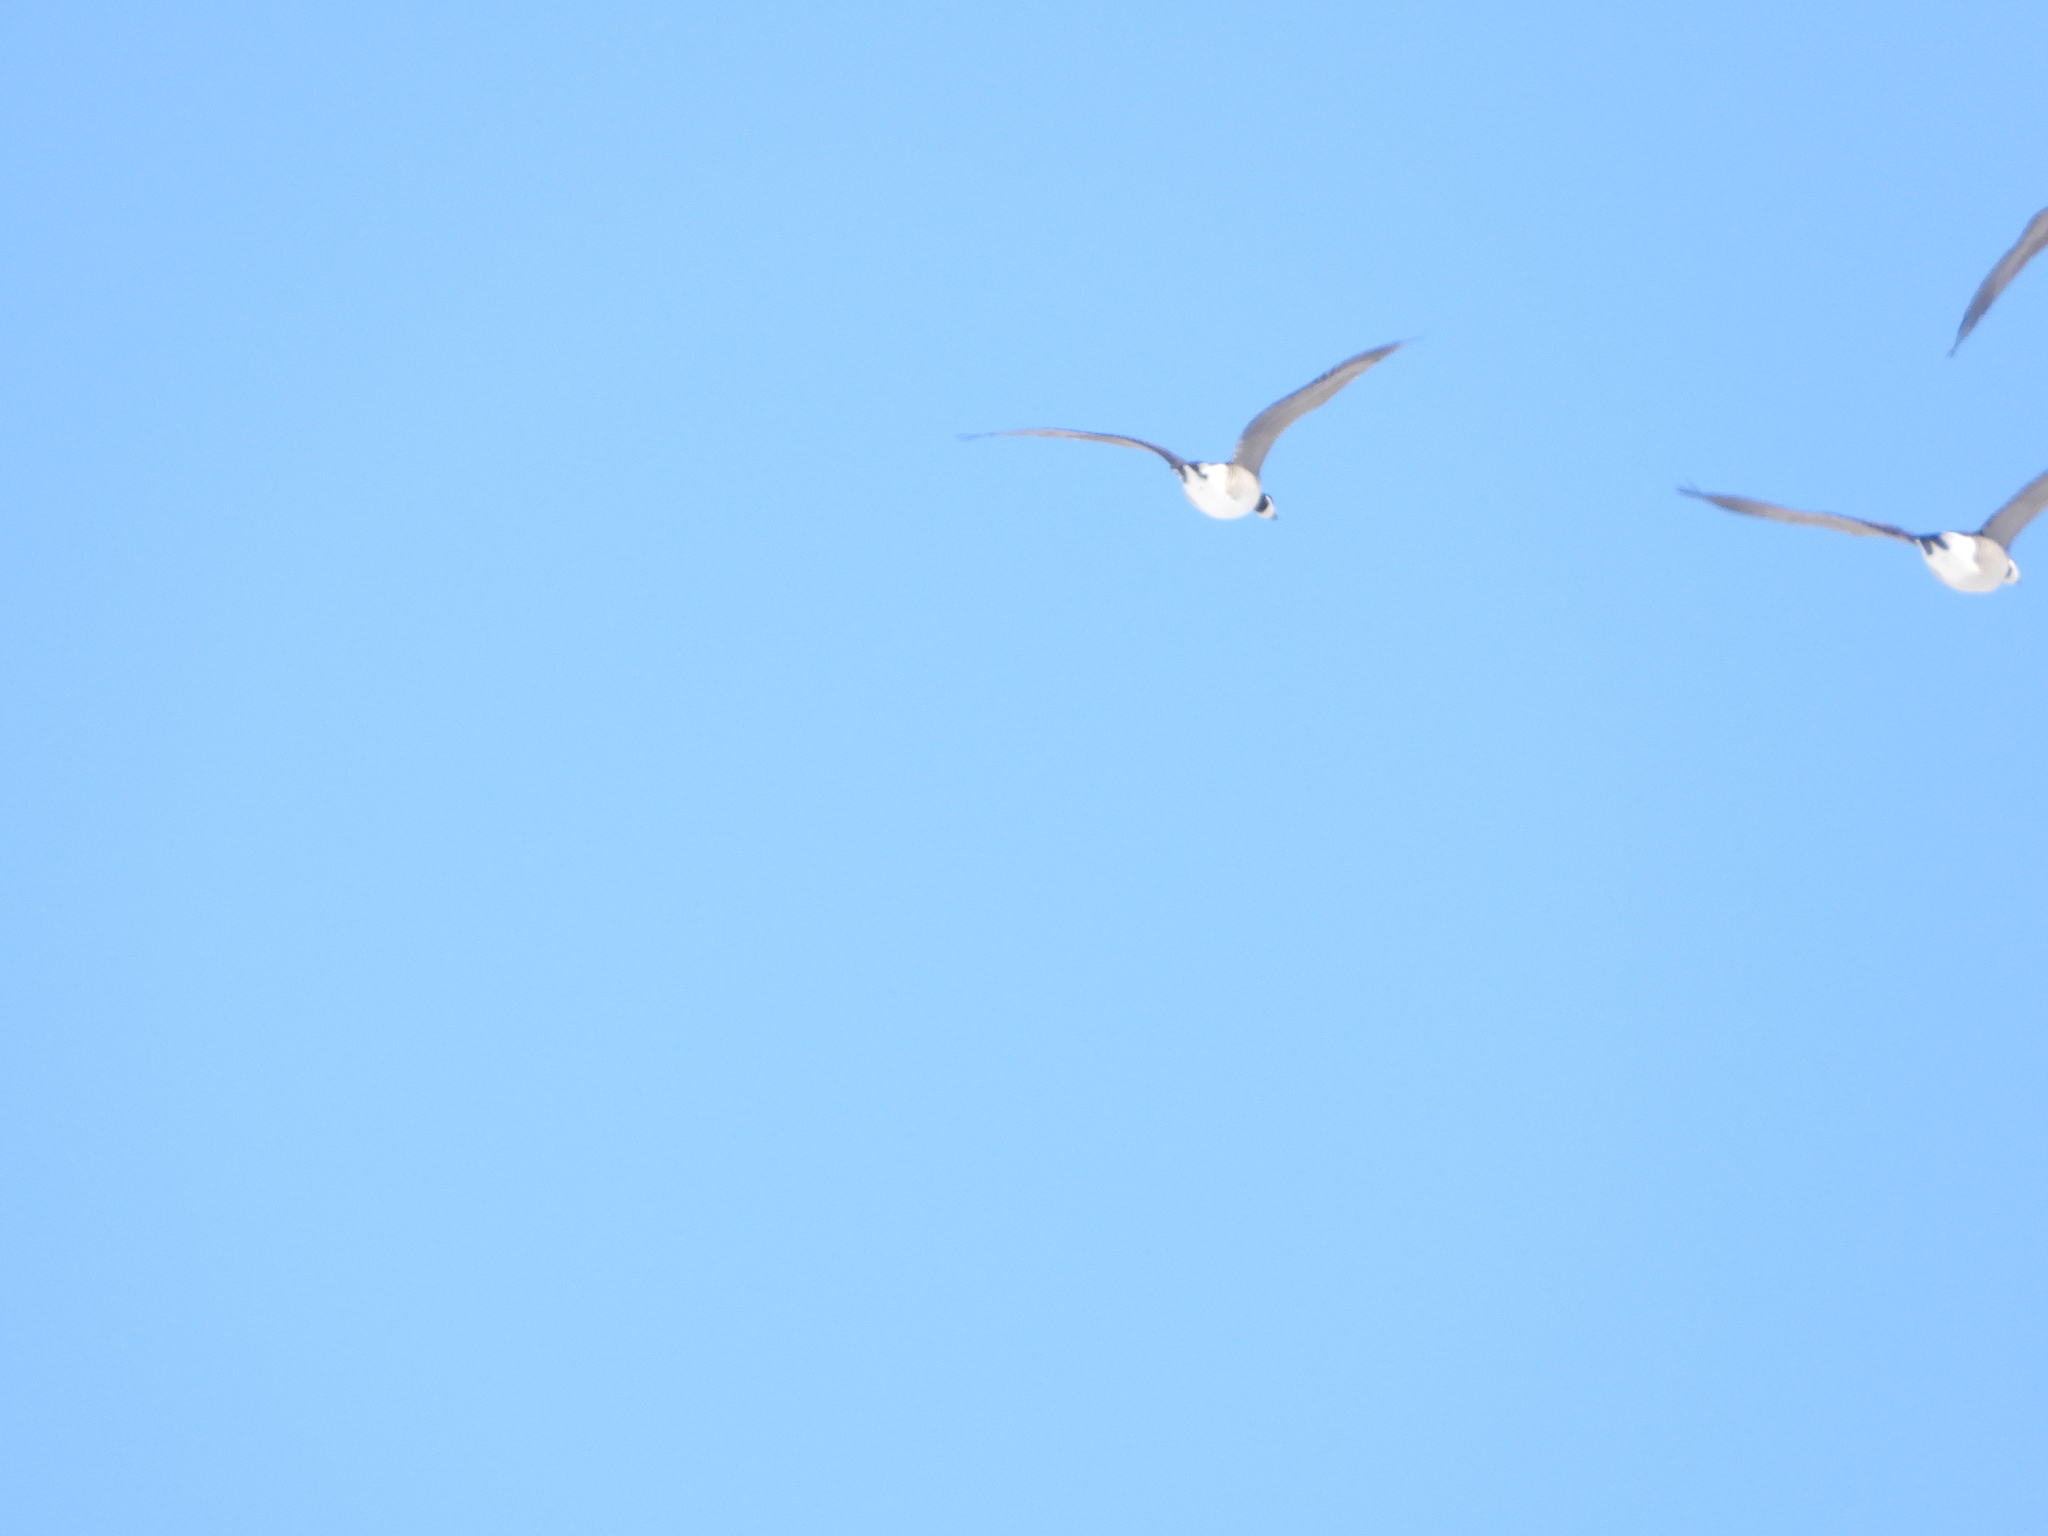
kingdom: Animalia
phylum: Chordata
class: Aves
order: Anseriformes
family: Anatidae
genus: Branta
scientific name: Branta hutchinsii
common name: Cackling goose
